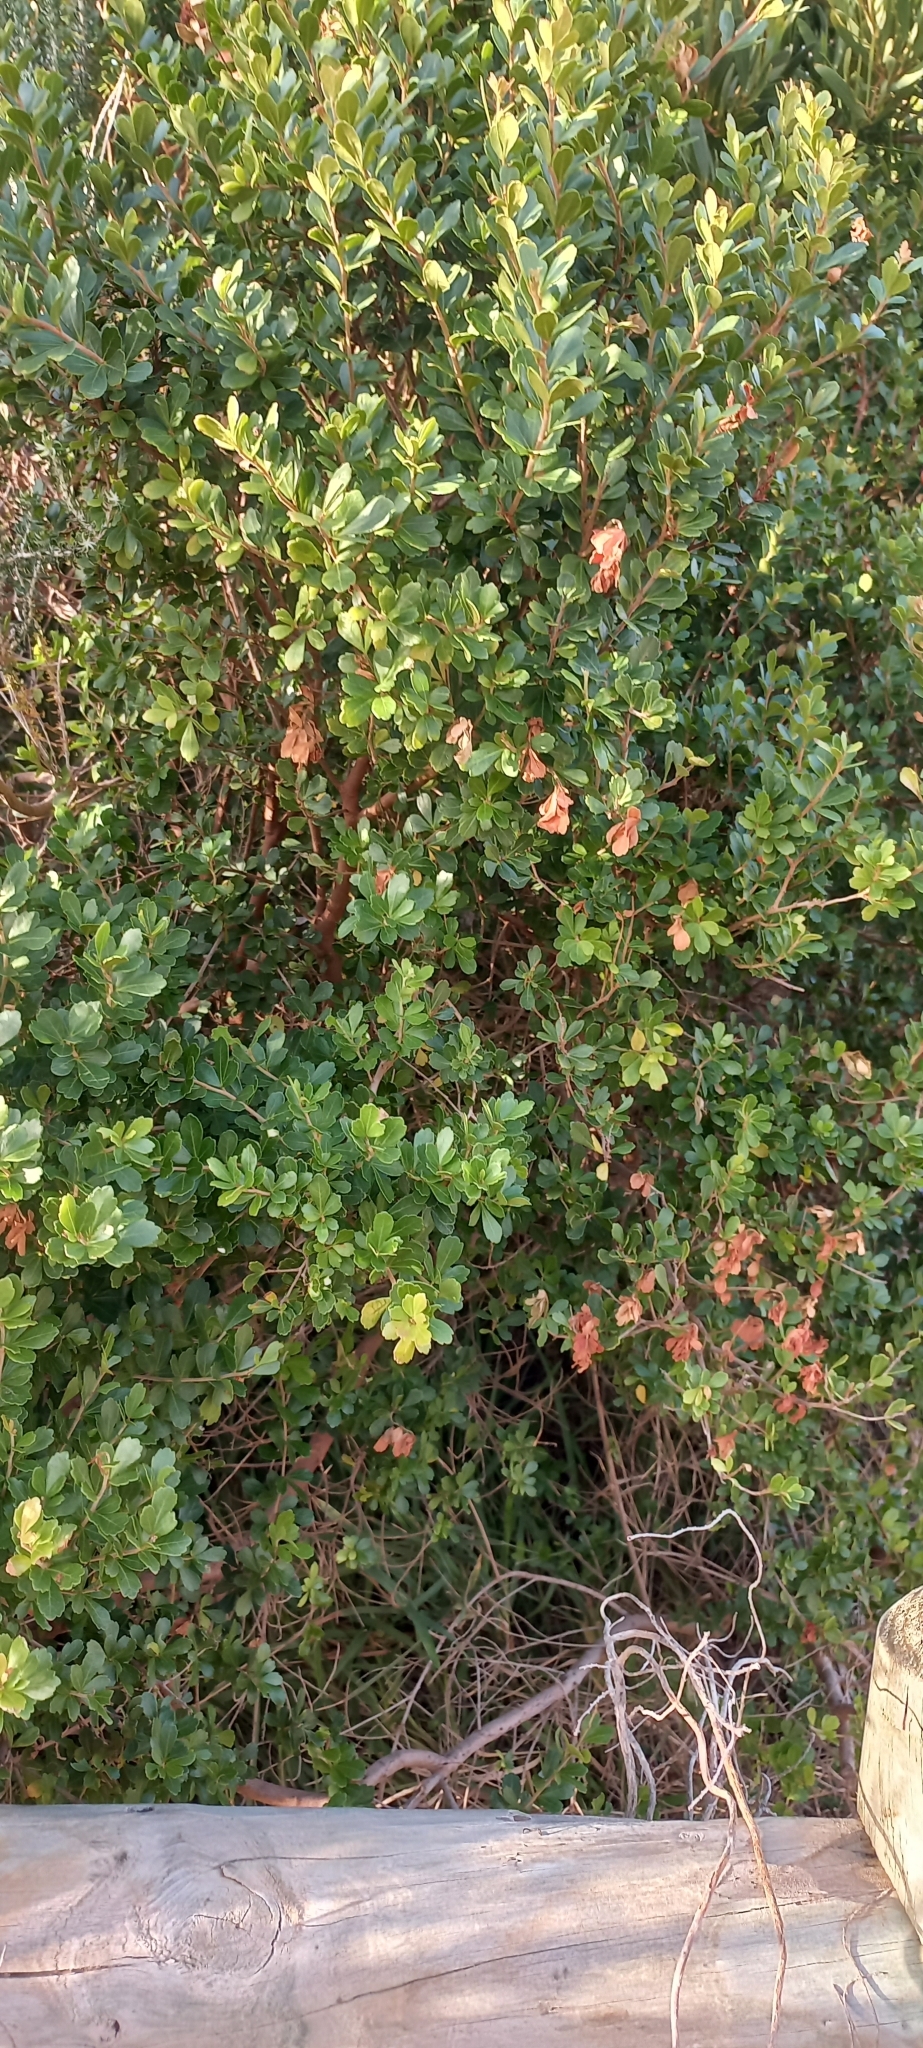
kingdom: Plantae
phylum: Tracheophyta
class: Magnoliopsida
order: Sapindales
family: Anacardiaceae
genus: Searsia
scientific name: Searsia crenata
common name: Crowberry
